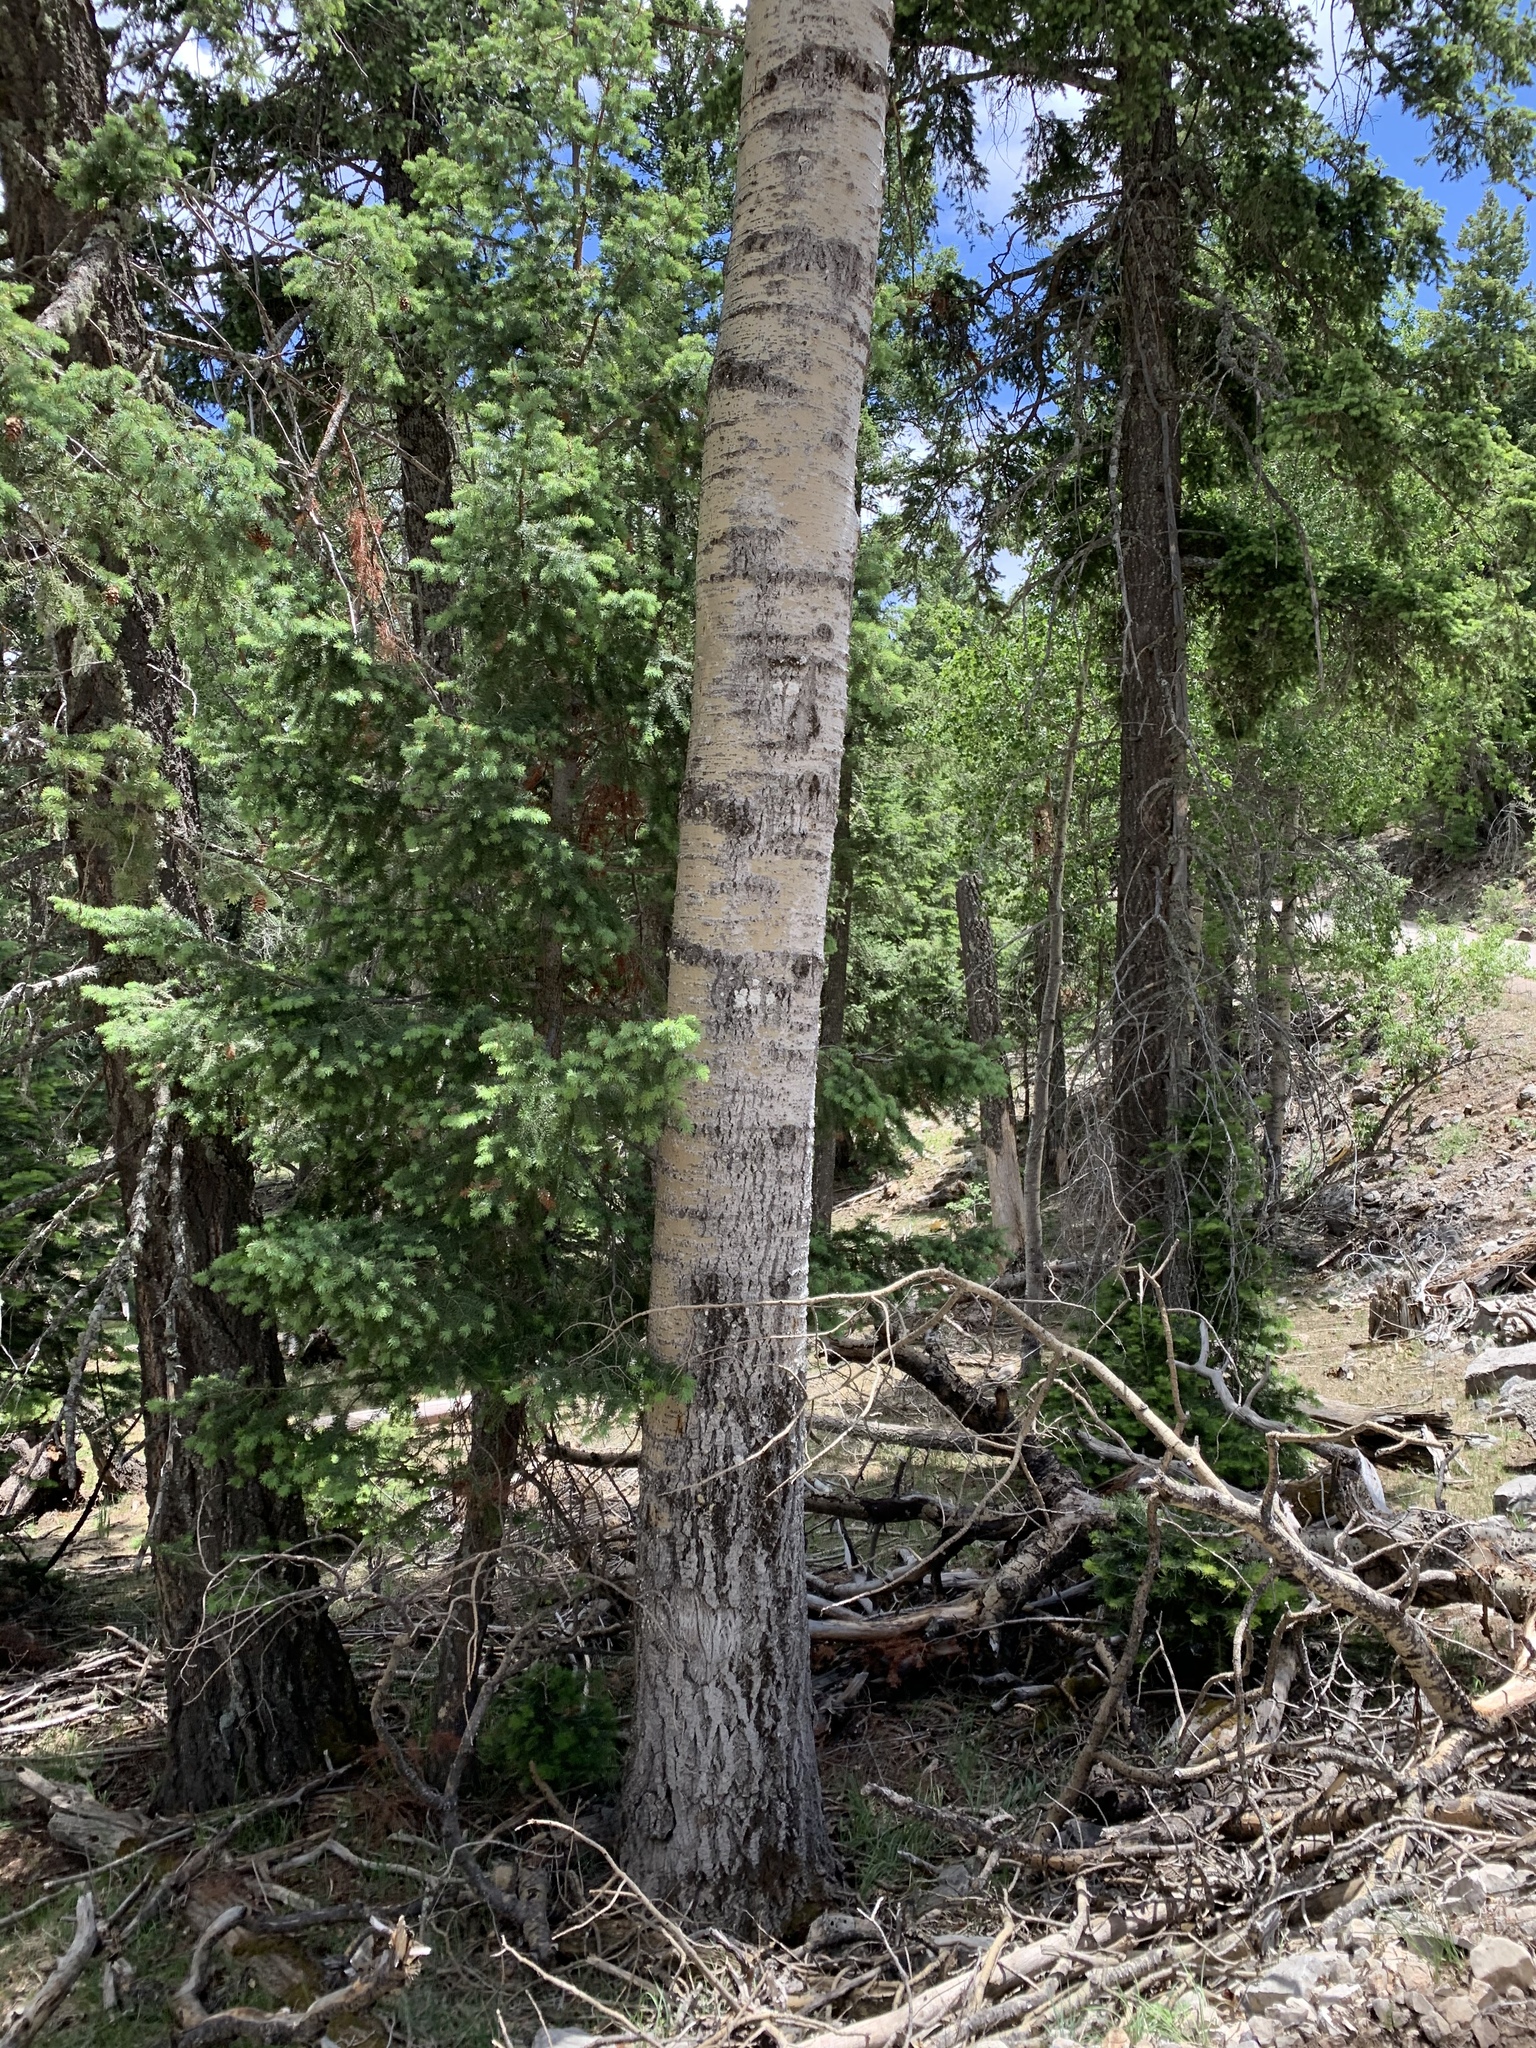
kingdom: Plantae
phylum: Tracheophyta
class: Magnoliopsida
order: Malpighiales
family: Salicaceae
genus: Populus
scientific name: Populus tremuloides
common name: Quaking aspen
